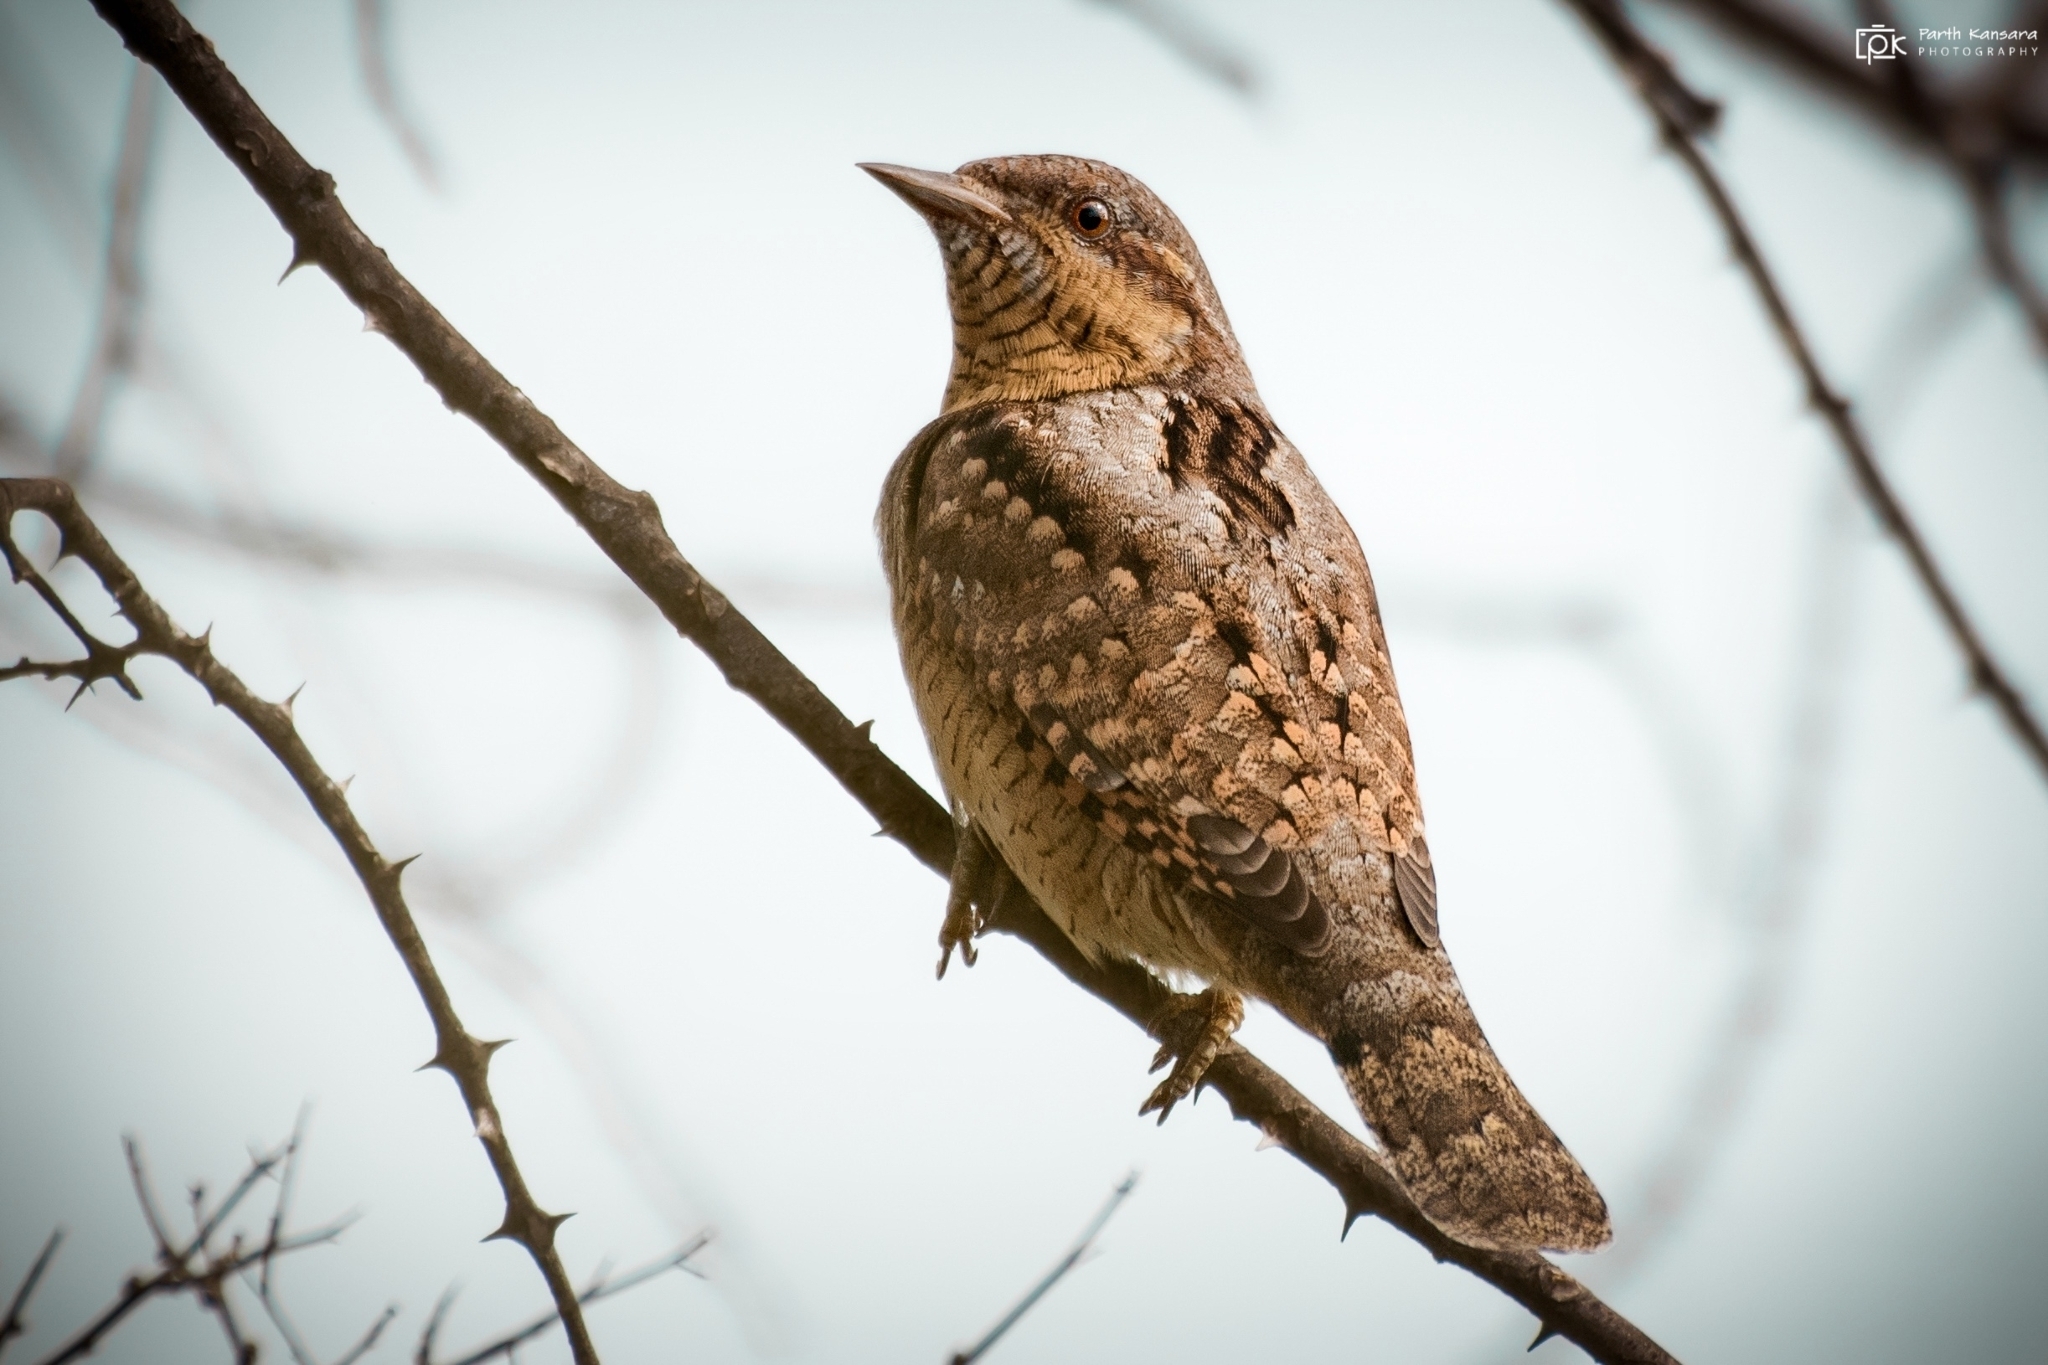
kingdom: Animalia
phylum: Chordata
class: Aves
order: Piciformes
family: Picidae
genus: Jynx
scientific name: Jynx torquilla
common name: Eurasian wryneck
